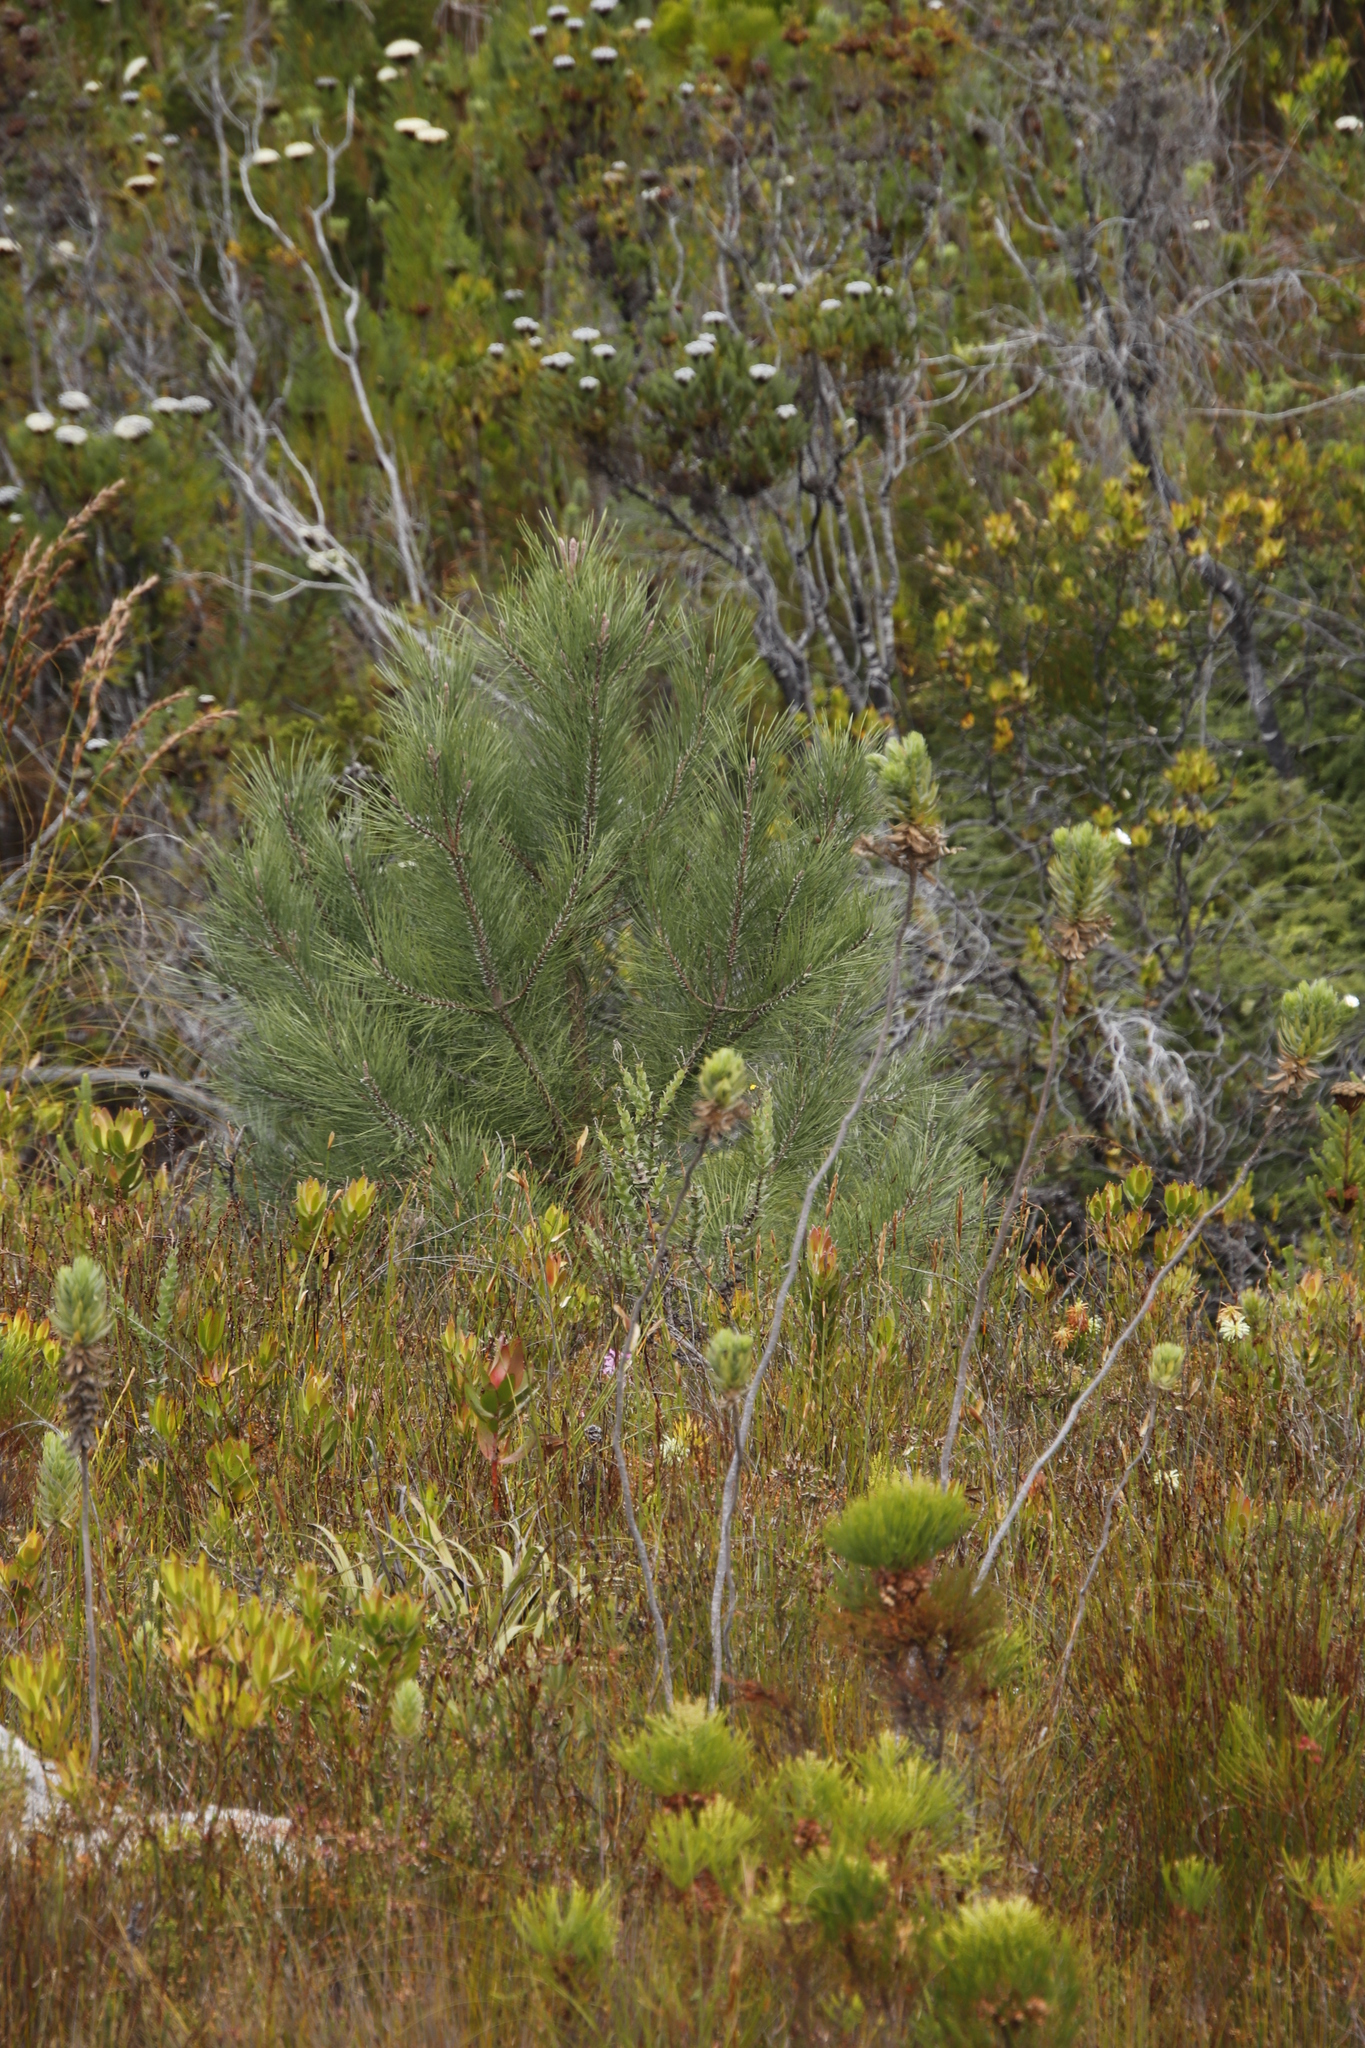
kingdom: Plantae
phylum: Tracheophyta
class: Pinopsida
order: Pinales
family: Pinaceae
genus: Pinus
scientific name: Pinus pinaster
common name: Maritime pine
